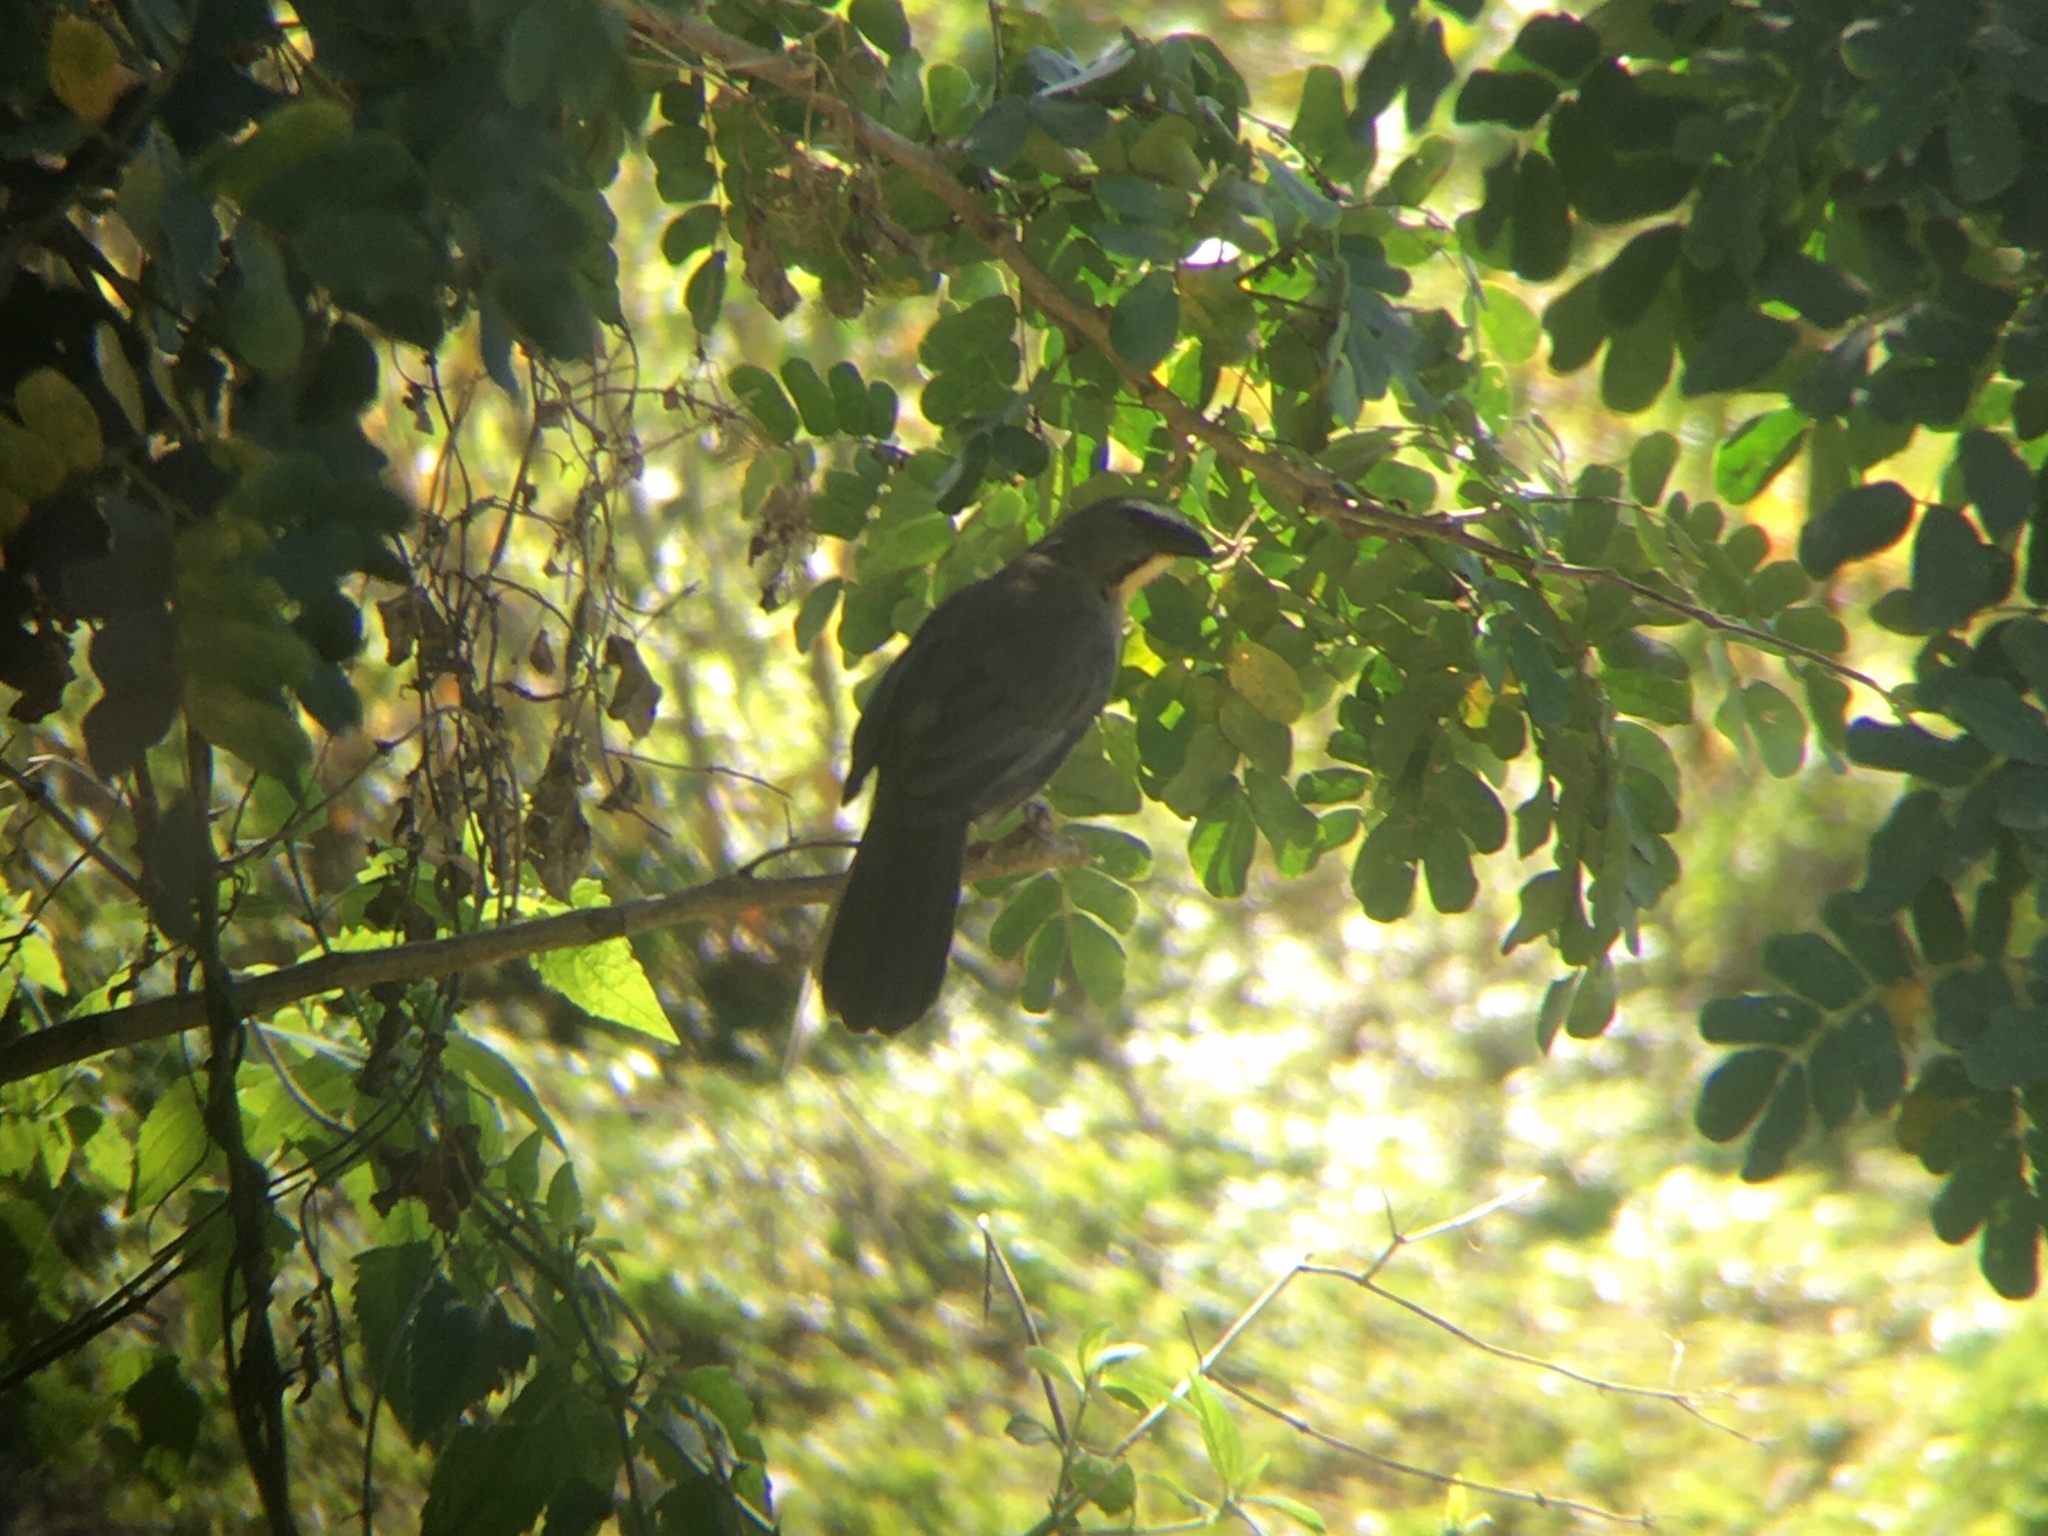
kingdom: Animalia
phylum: Chordata
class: Aves
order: Passeriformes
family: Thraupidae
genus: Saltator
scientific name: Saltator coerulescens
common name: Grayish saltator
